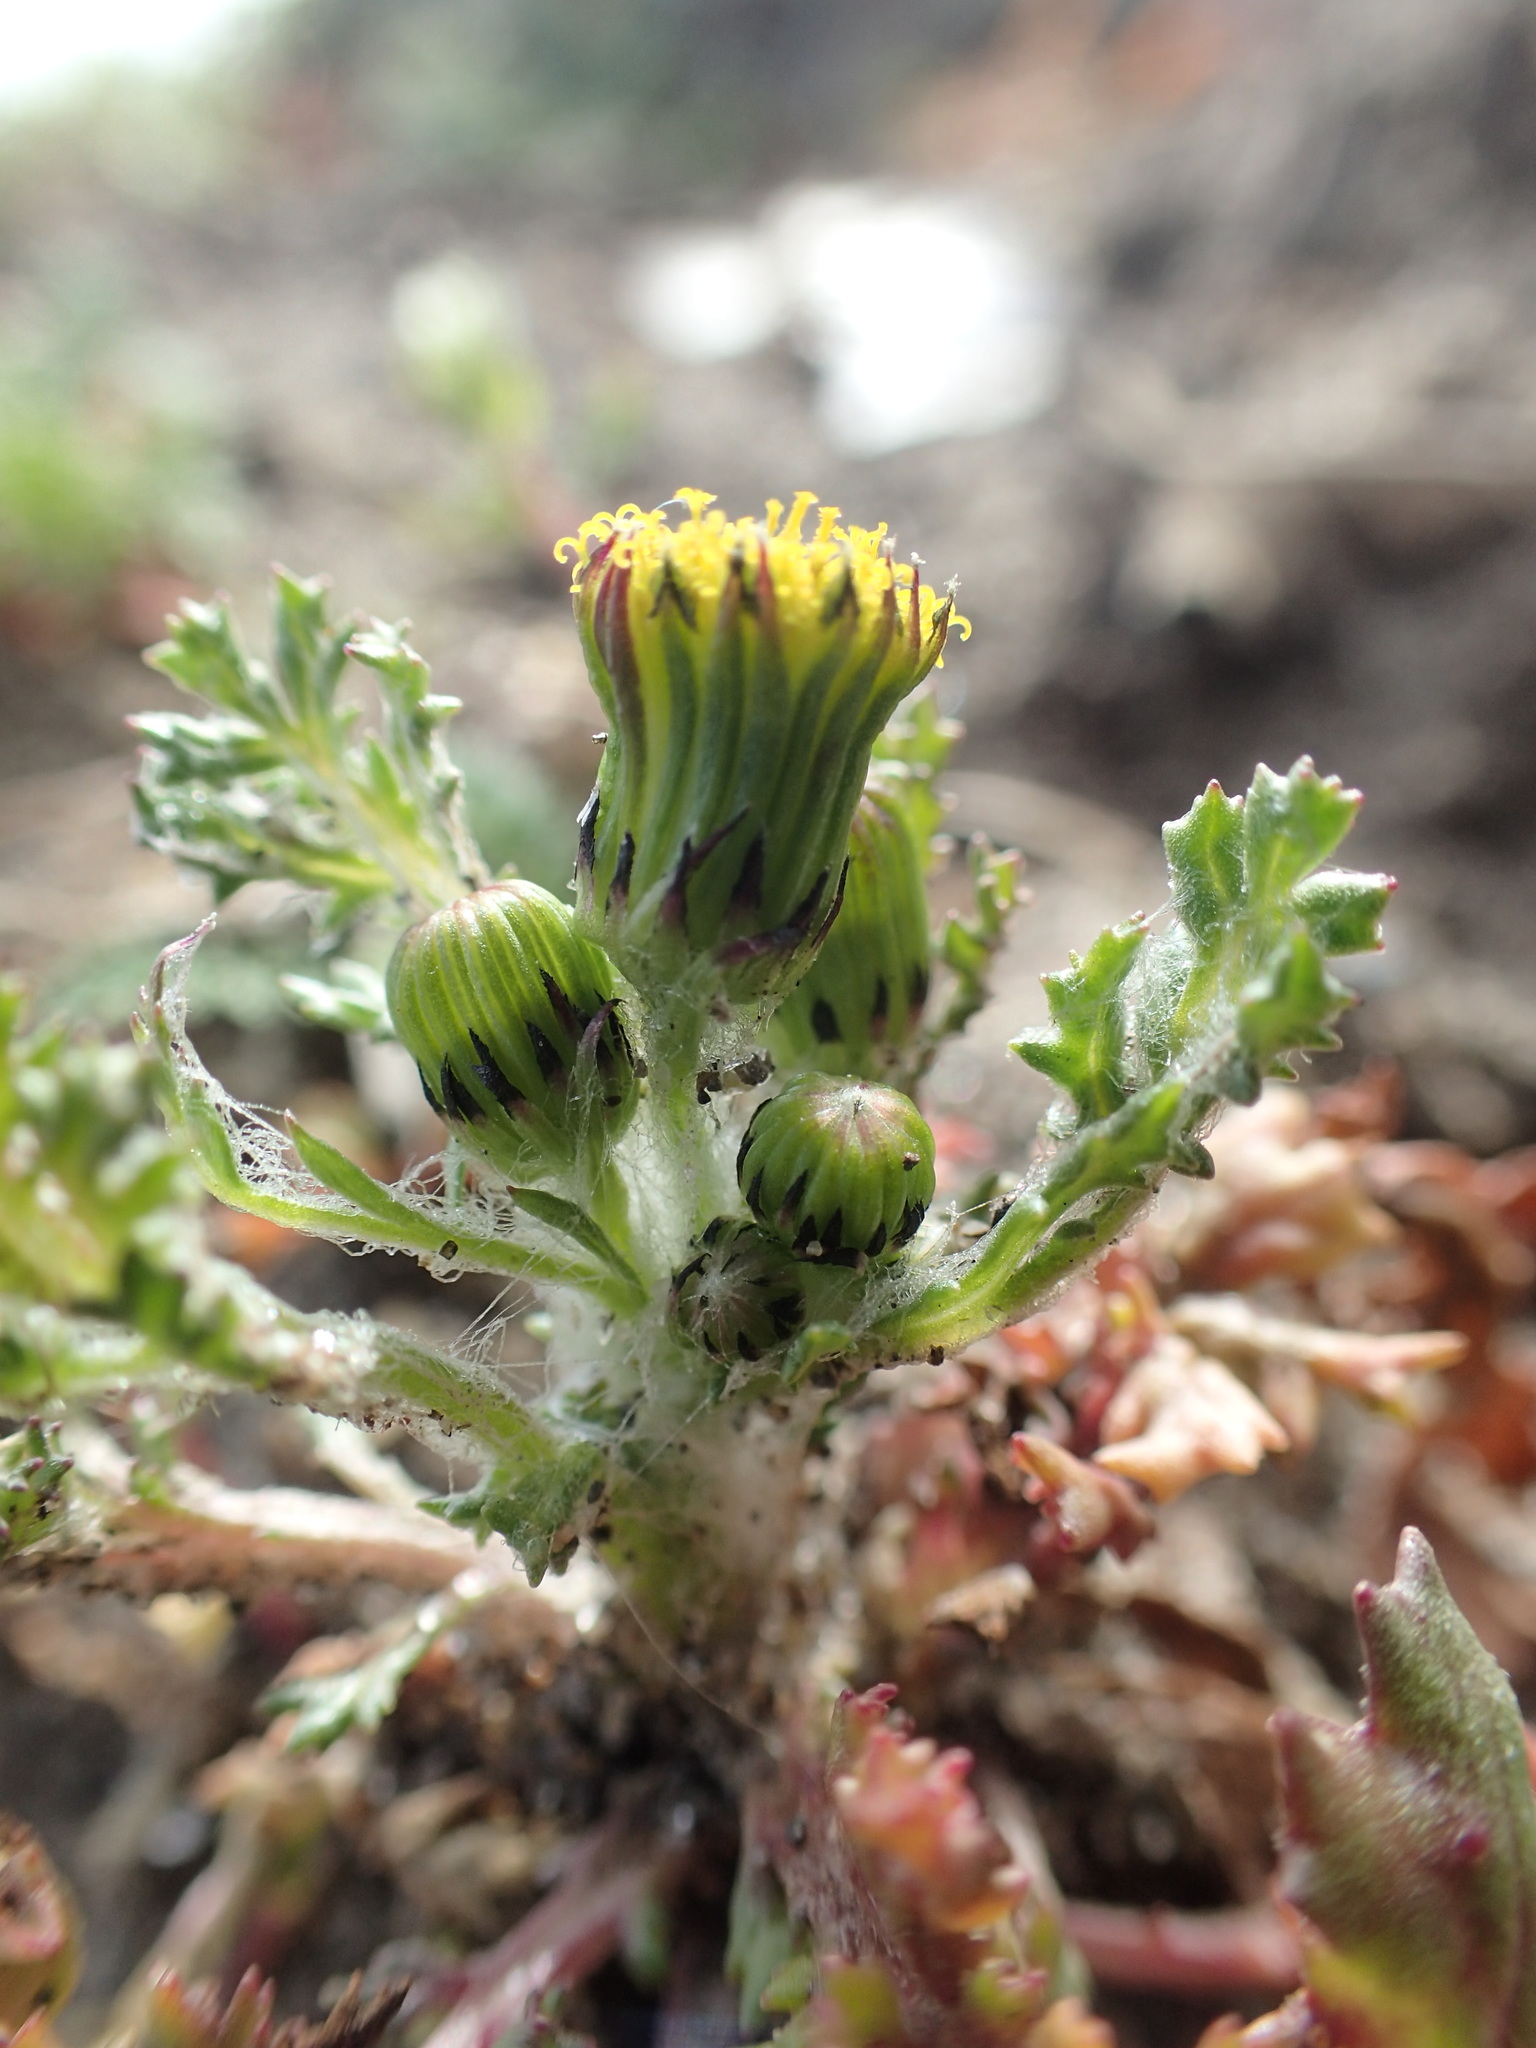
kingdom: Plantae
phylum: Tracheophyta
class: Magnoliopsida
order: Asterales
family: Asteraceae
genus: Senecio
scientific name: Senecio vulgaris
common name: Old-man-in-the-spring
